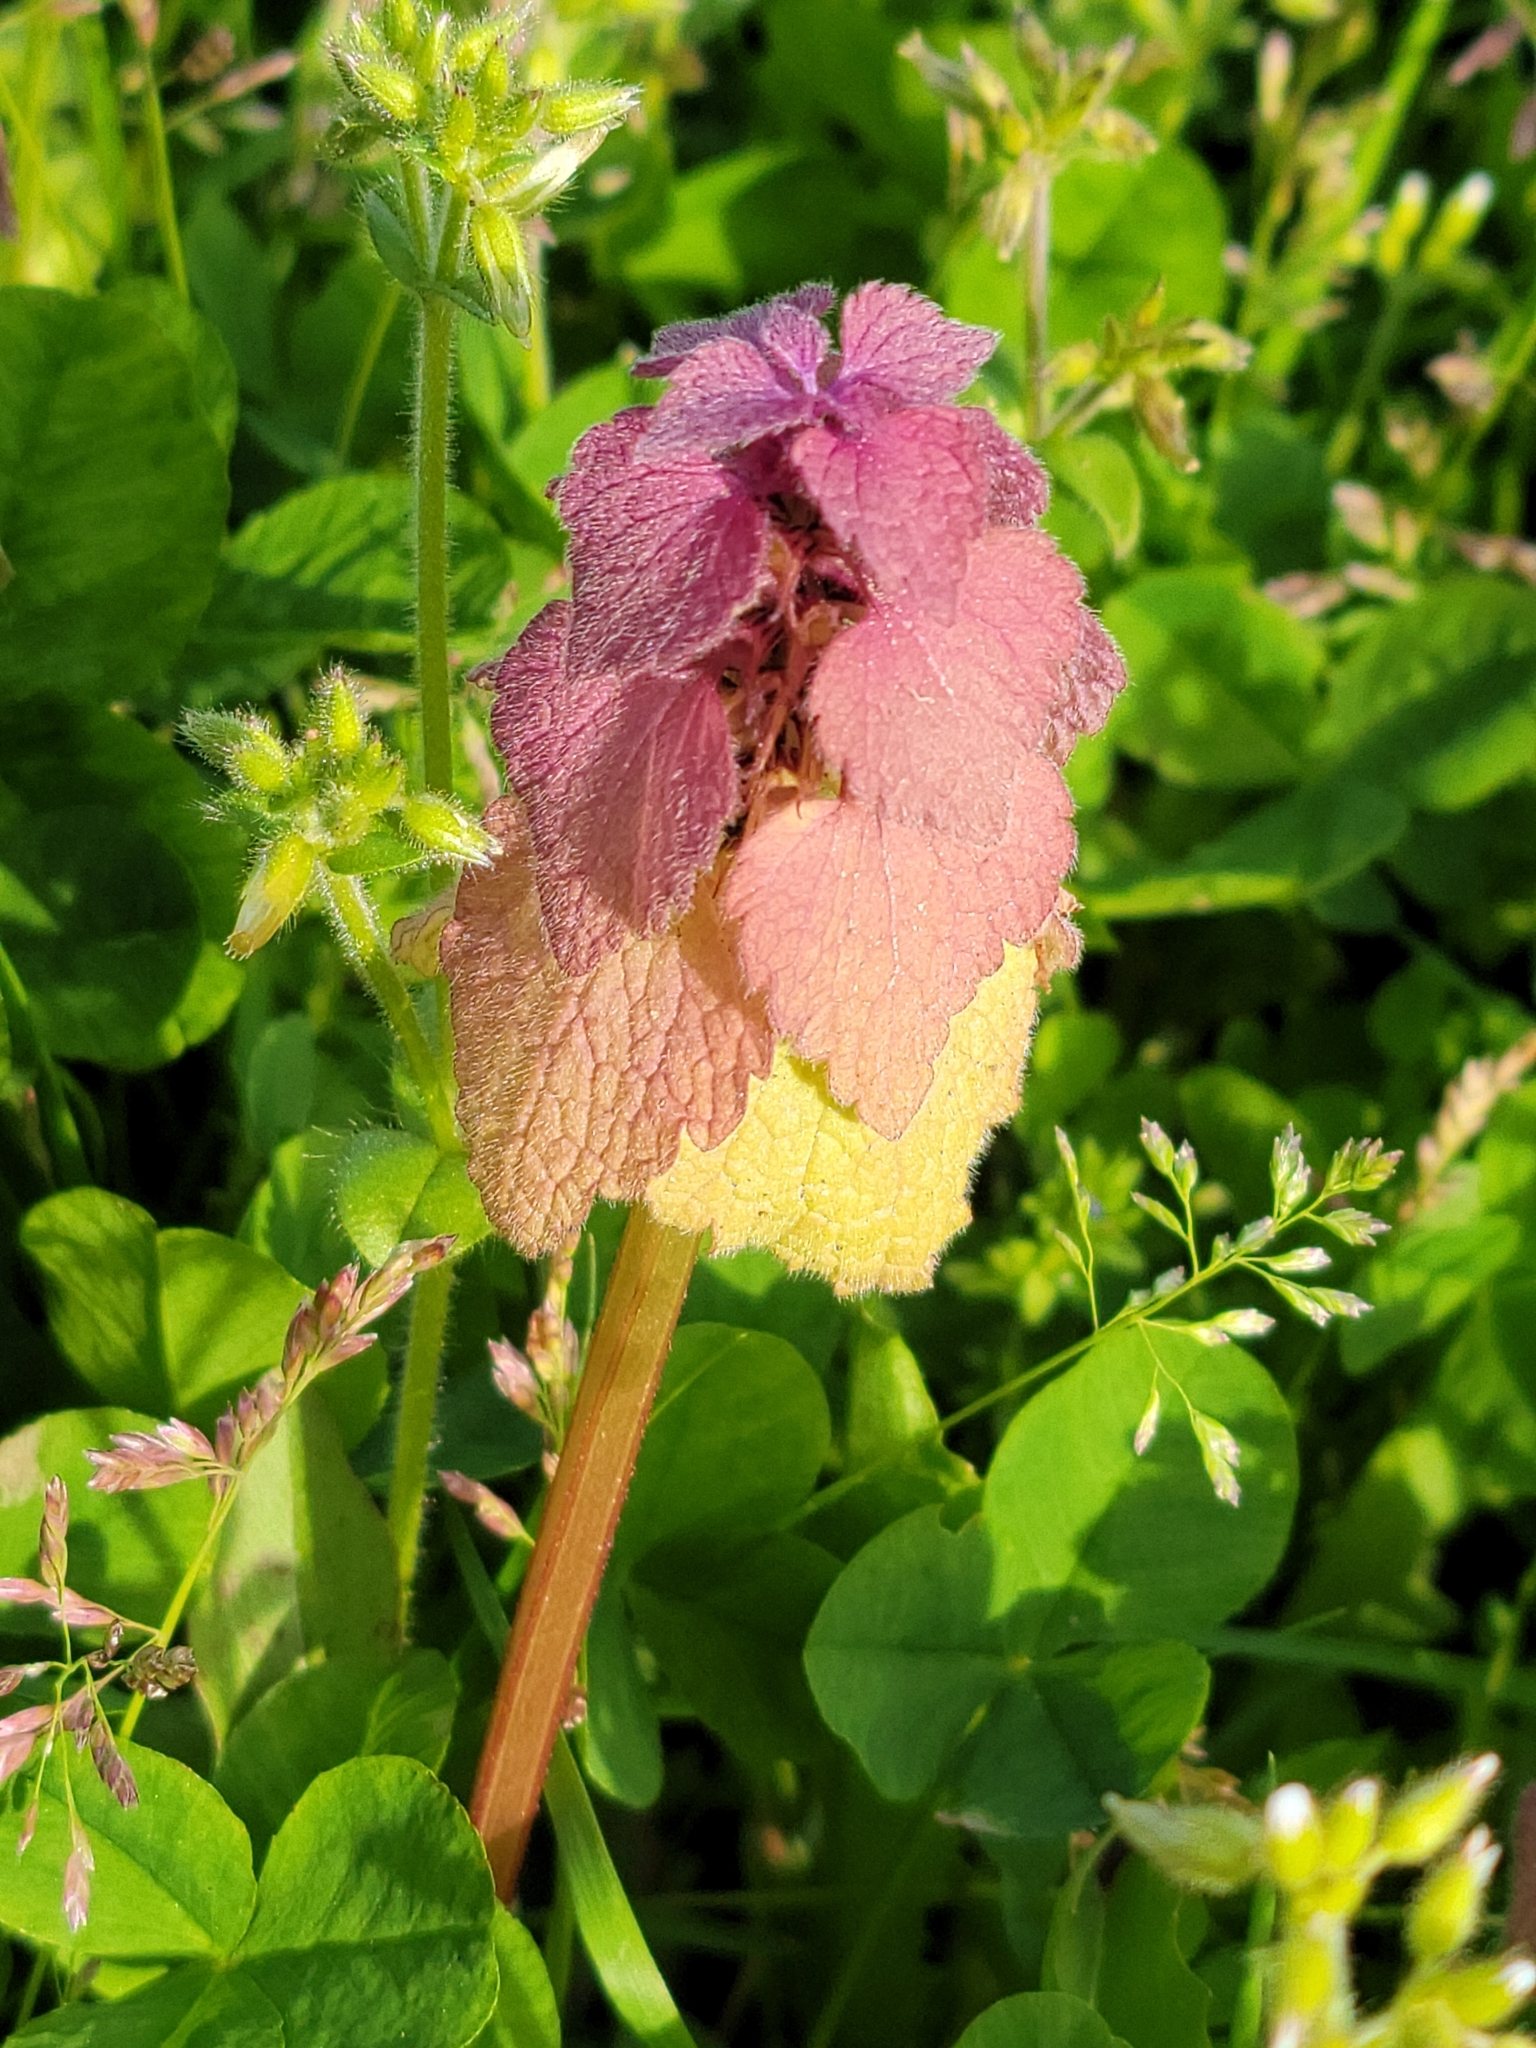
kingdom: Plantae
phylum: Tracheophyta
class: Magnoliopsida
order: Lamiales
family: Lamiaceae
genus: Lamium
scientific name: Lamium purpureum
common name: Red dead-nettle
